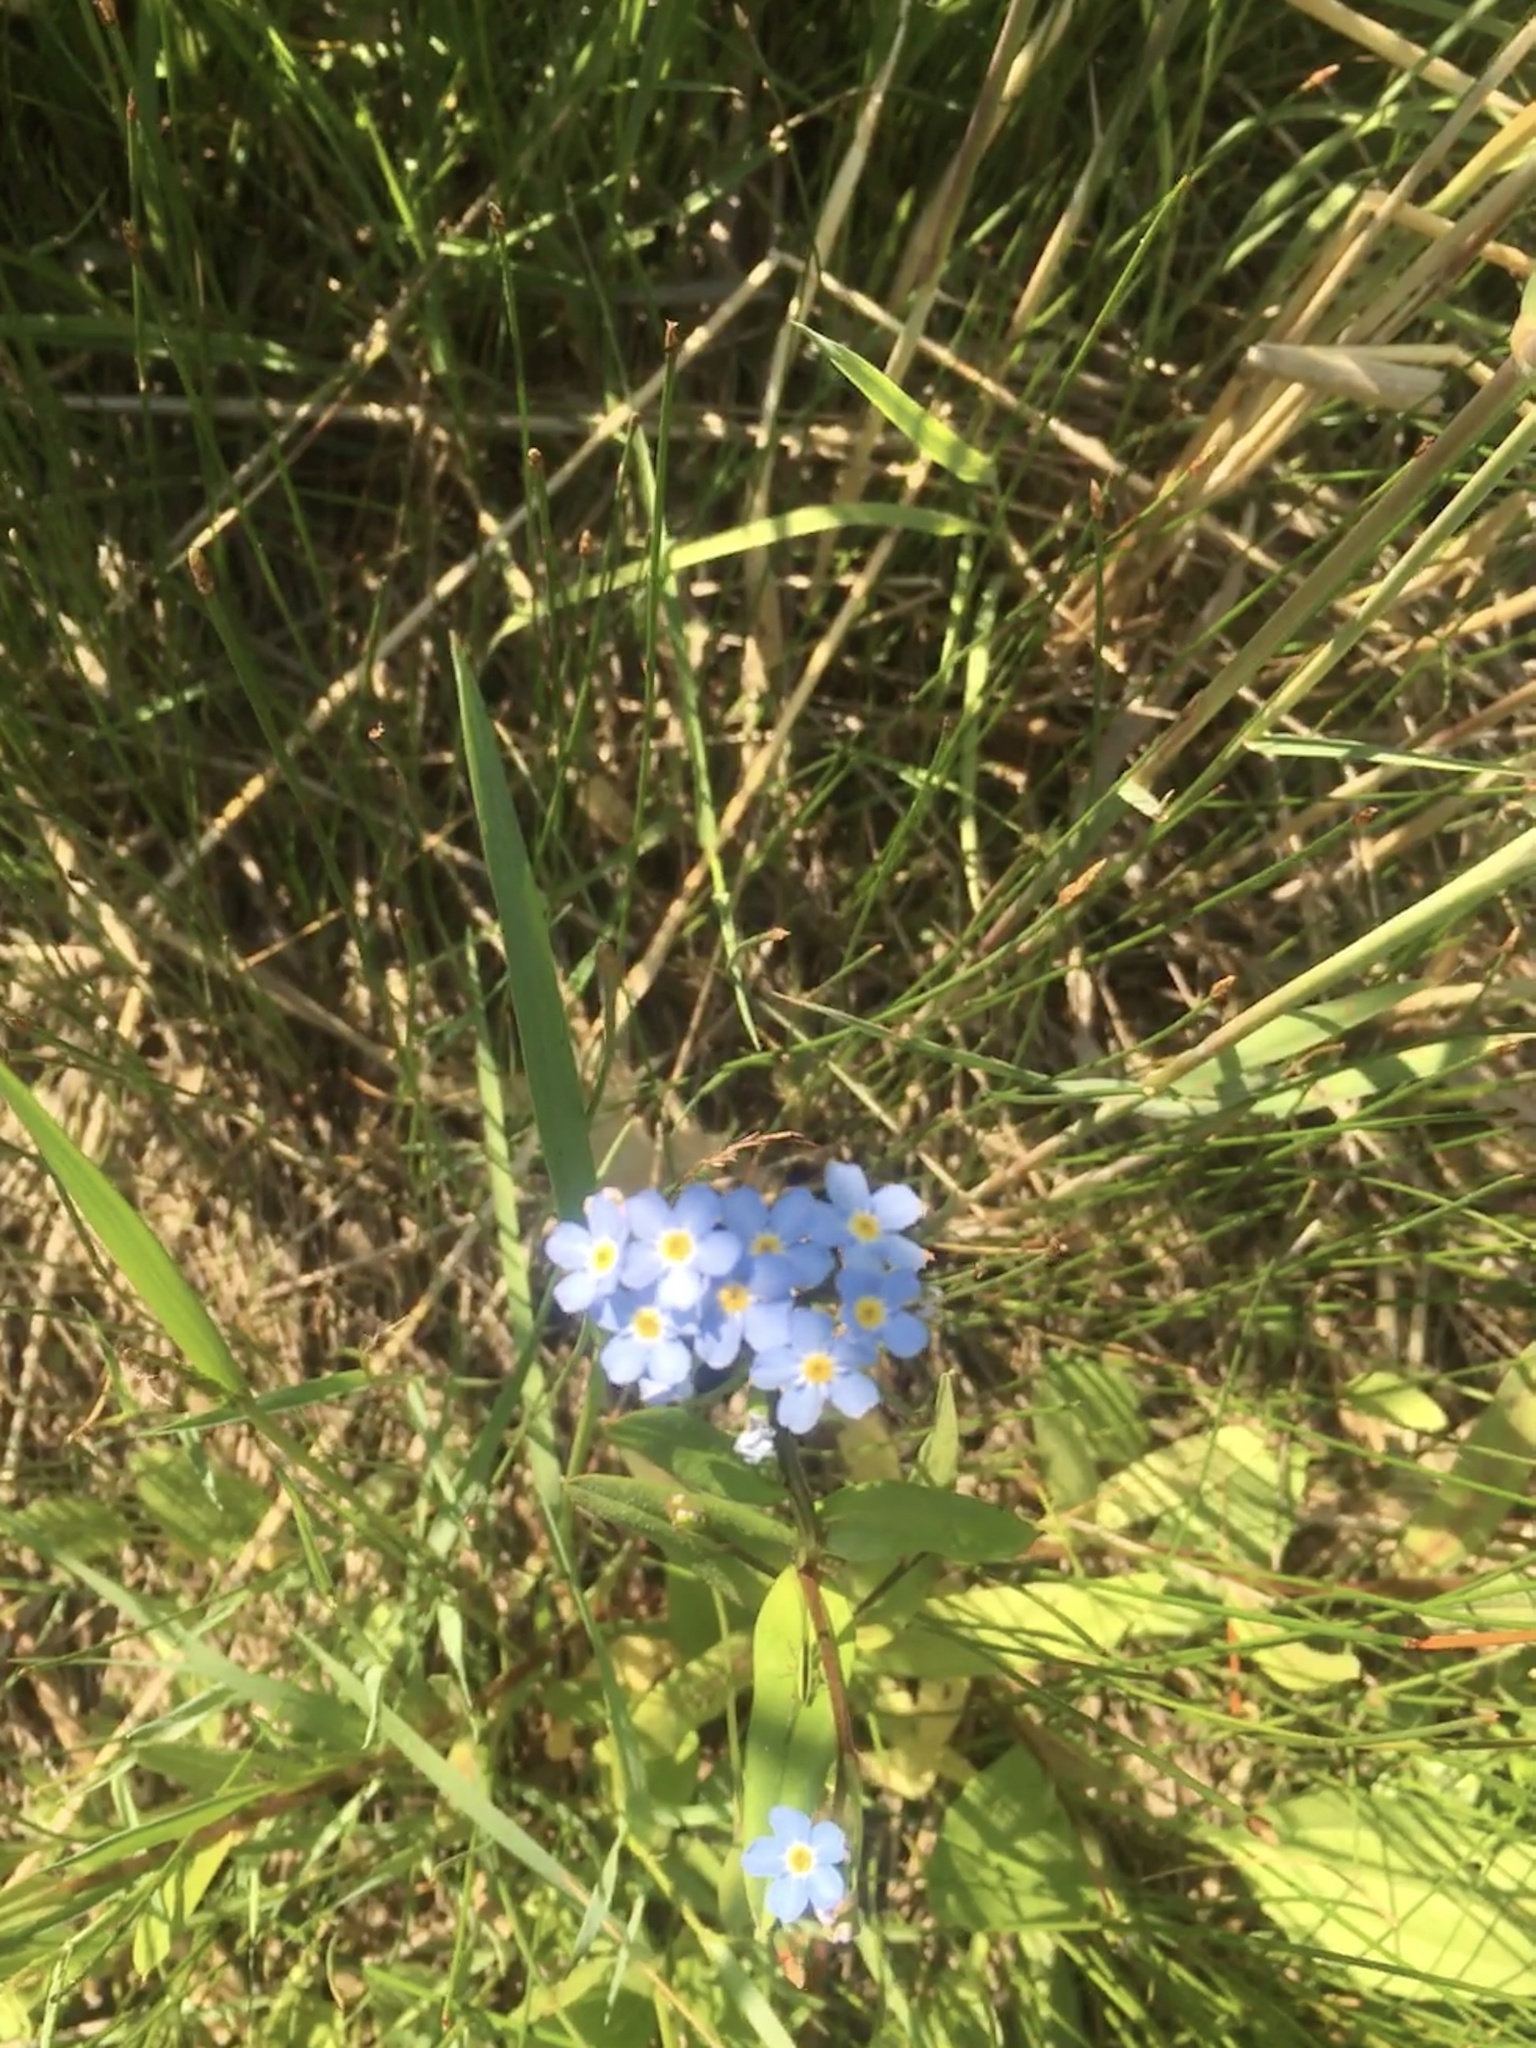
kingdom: Plantae
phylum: Tracheophyta
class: Magnoliopsida
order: Boraginales
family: Boraginaceae
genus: Myosotis
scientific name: Myosotis scorpioides
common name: Water forget-me-not
